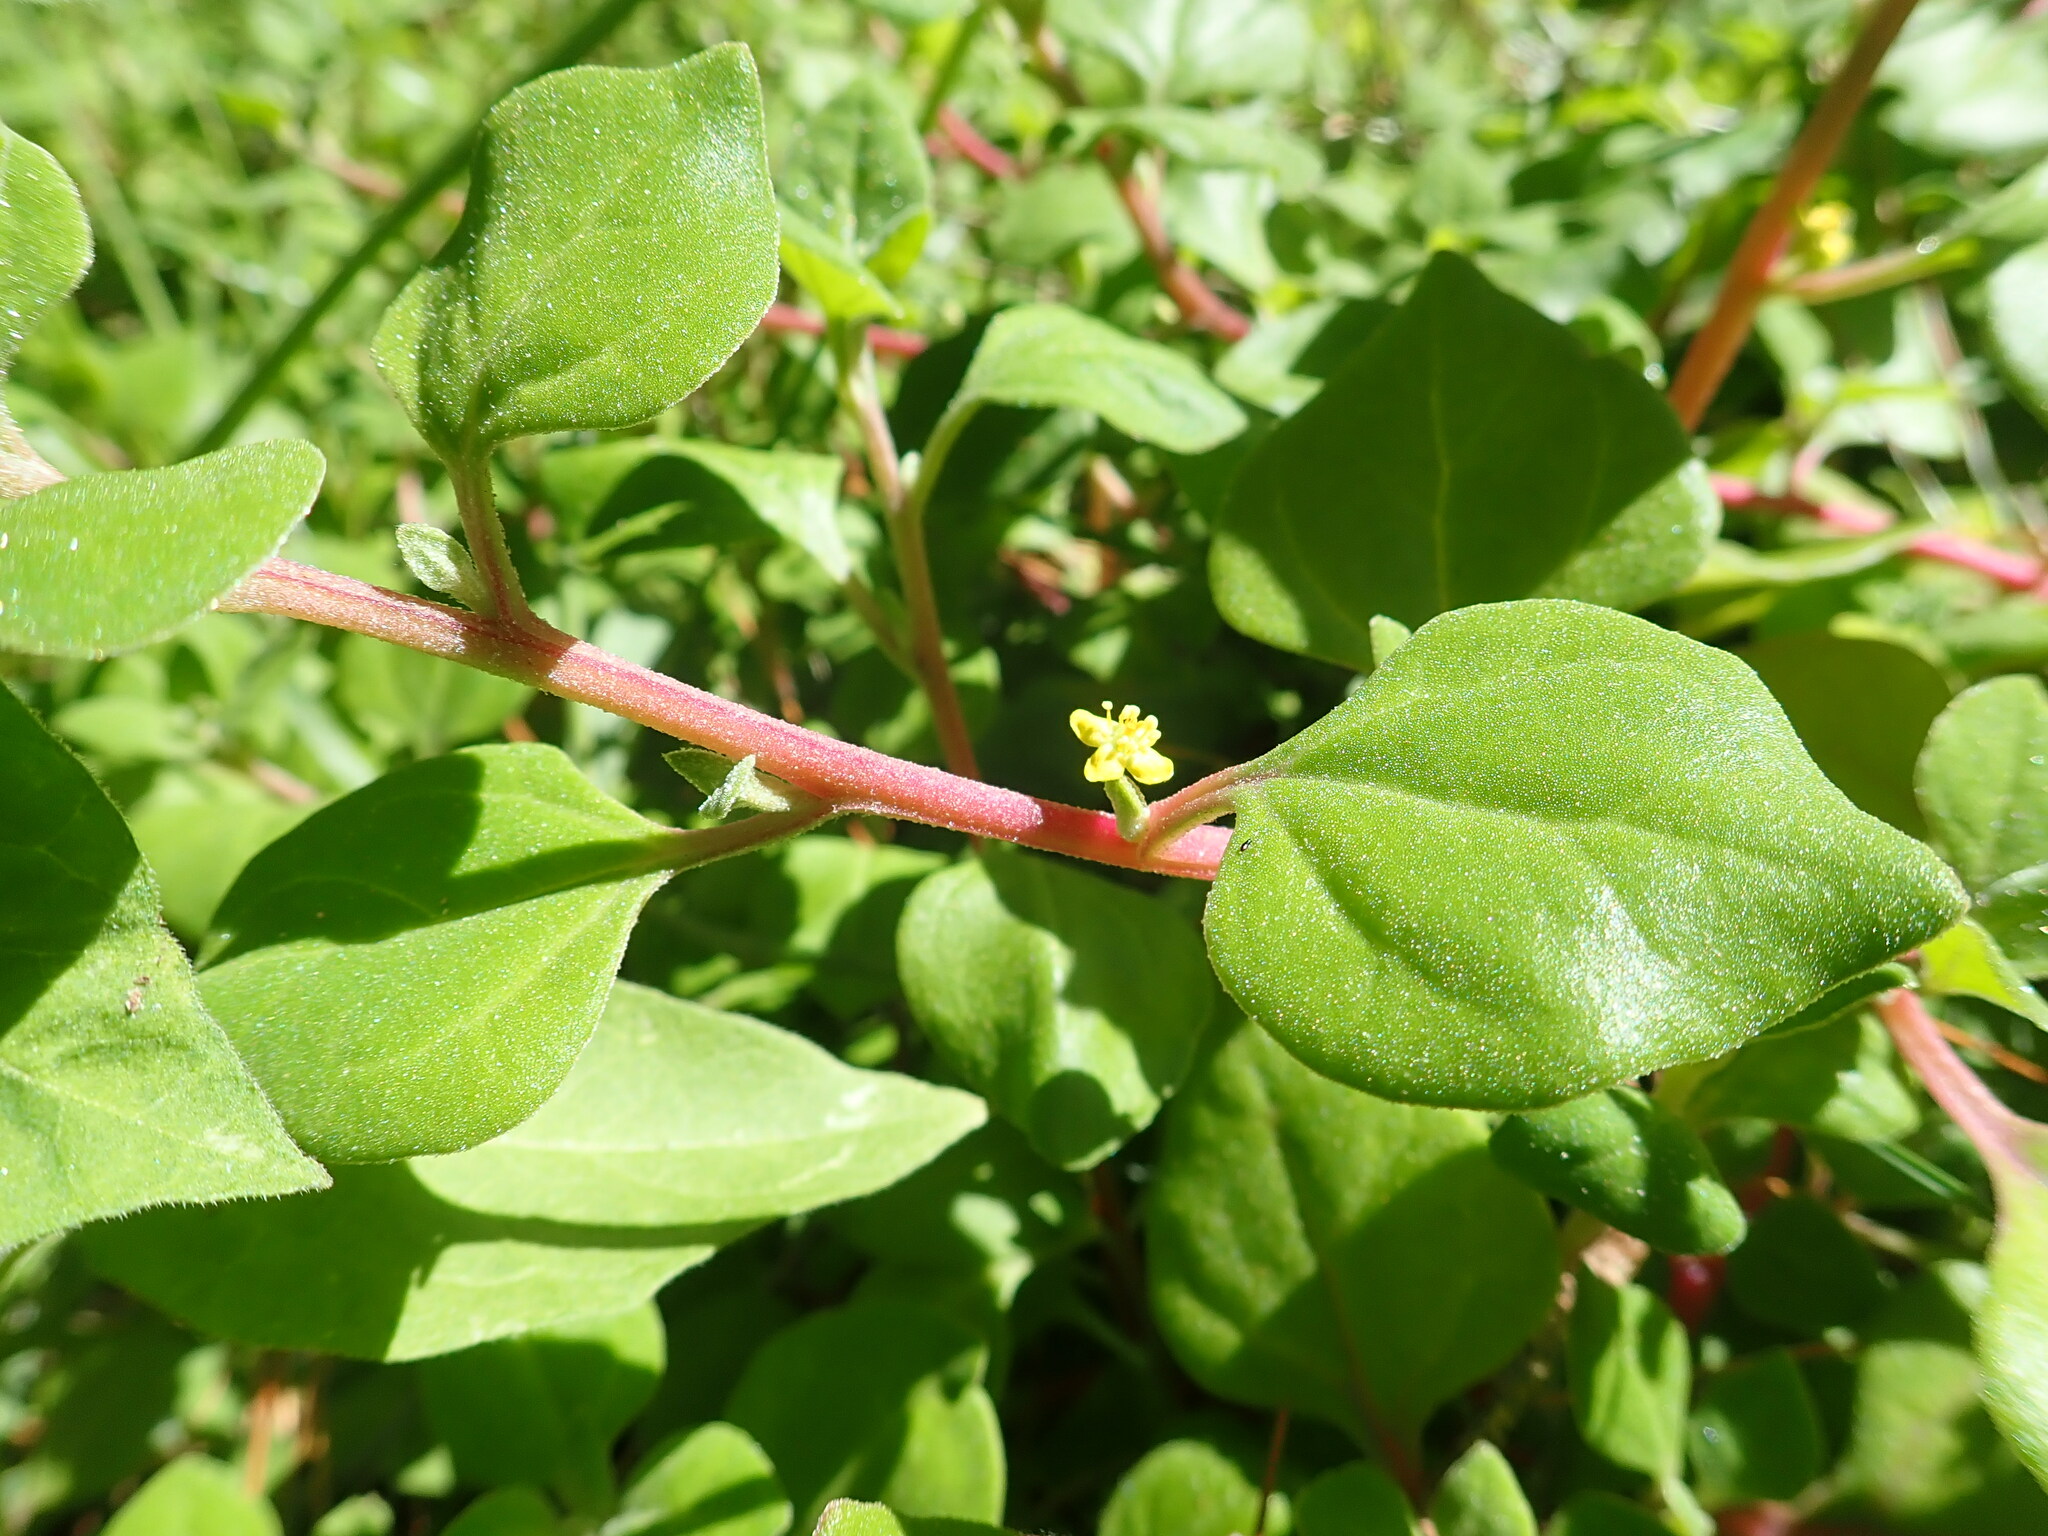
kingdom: Plantae
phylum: Tracheophyta
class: Magnoliopsida
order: Caryophyllales
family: Aizoaceae
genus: Tetragonia
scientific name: Tetragonia implexicoma
